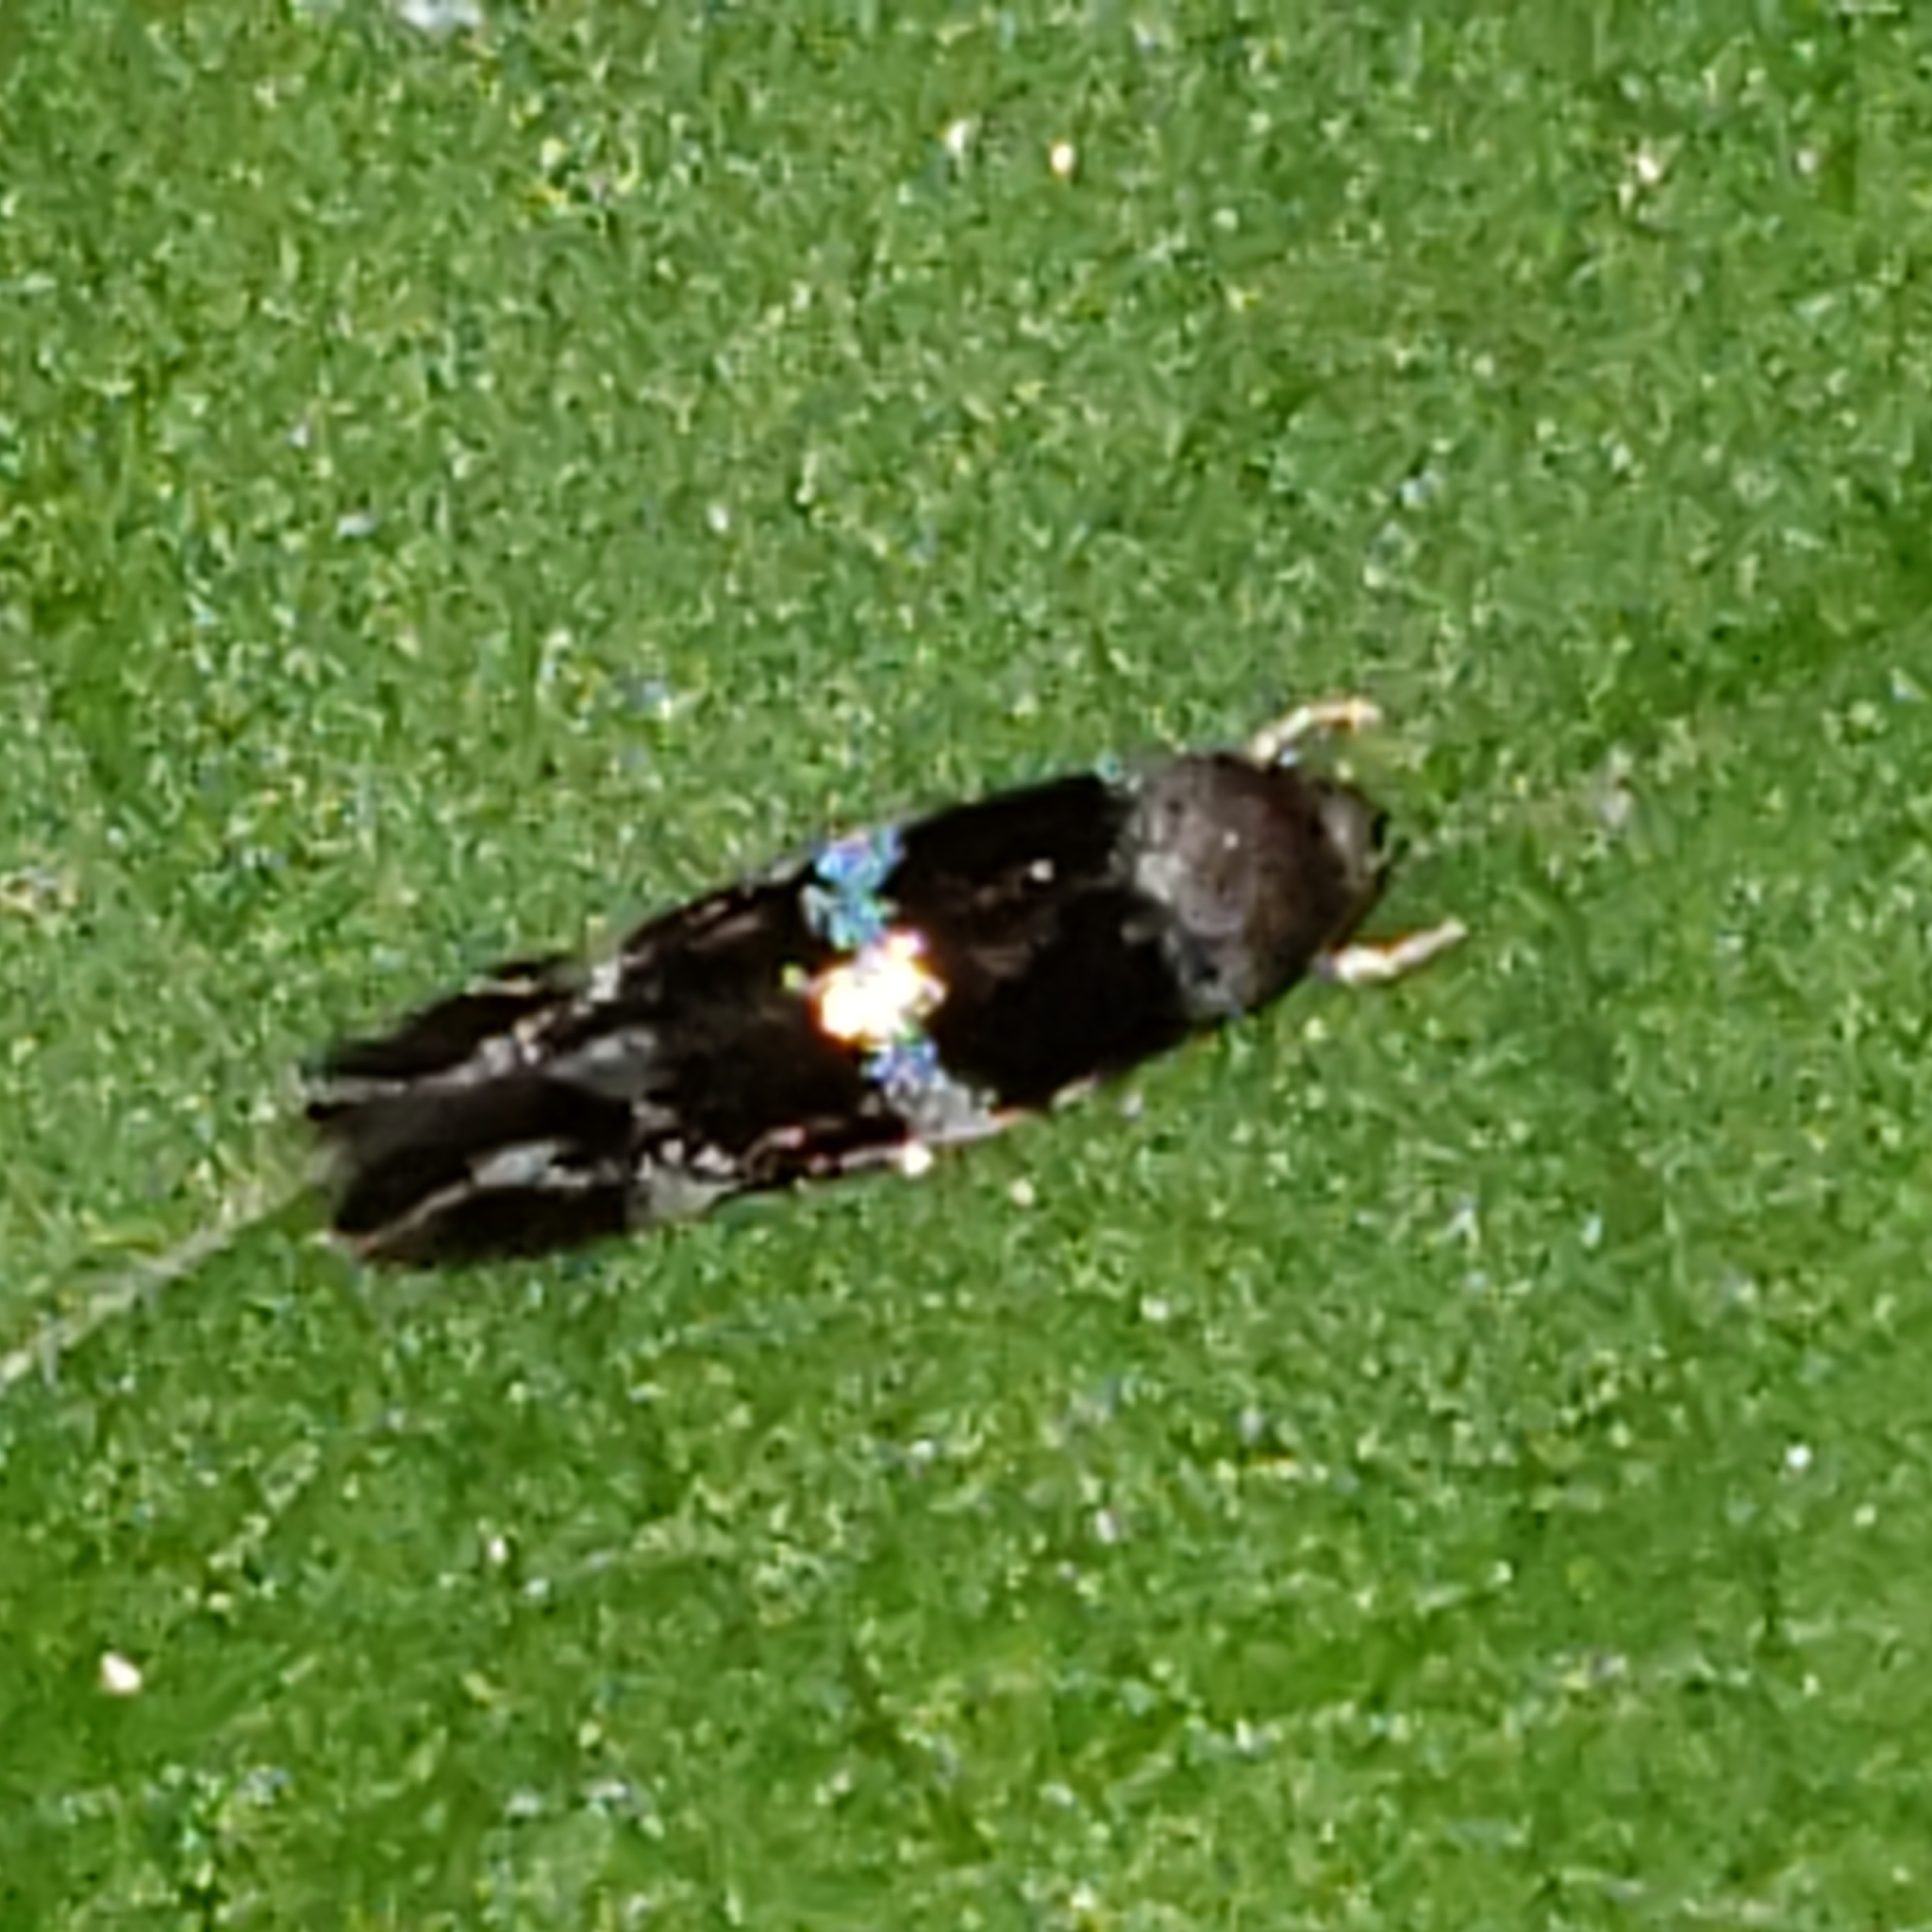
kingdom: Animalia
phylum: Arthropoda
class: Insecta
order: Lepidoptera
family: Elachistidae
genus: Elachista
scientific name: Elachista madarella
